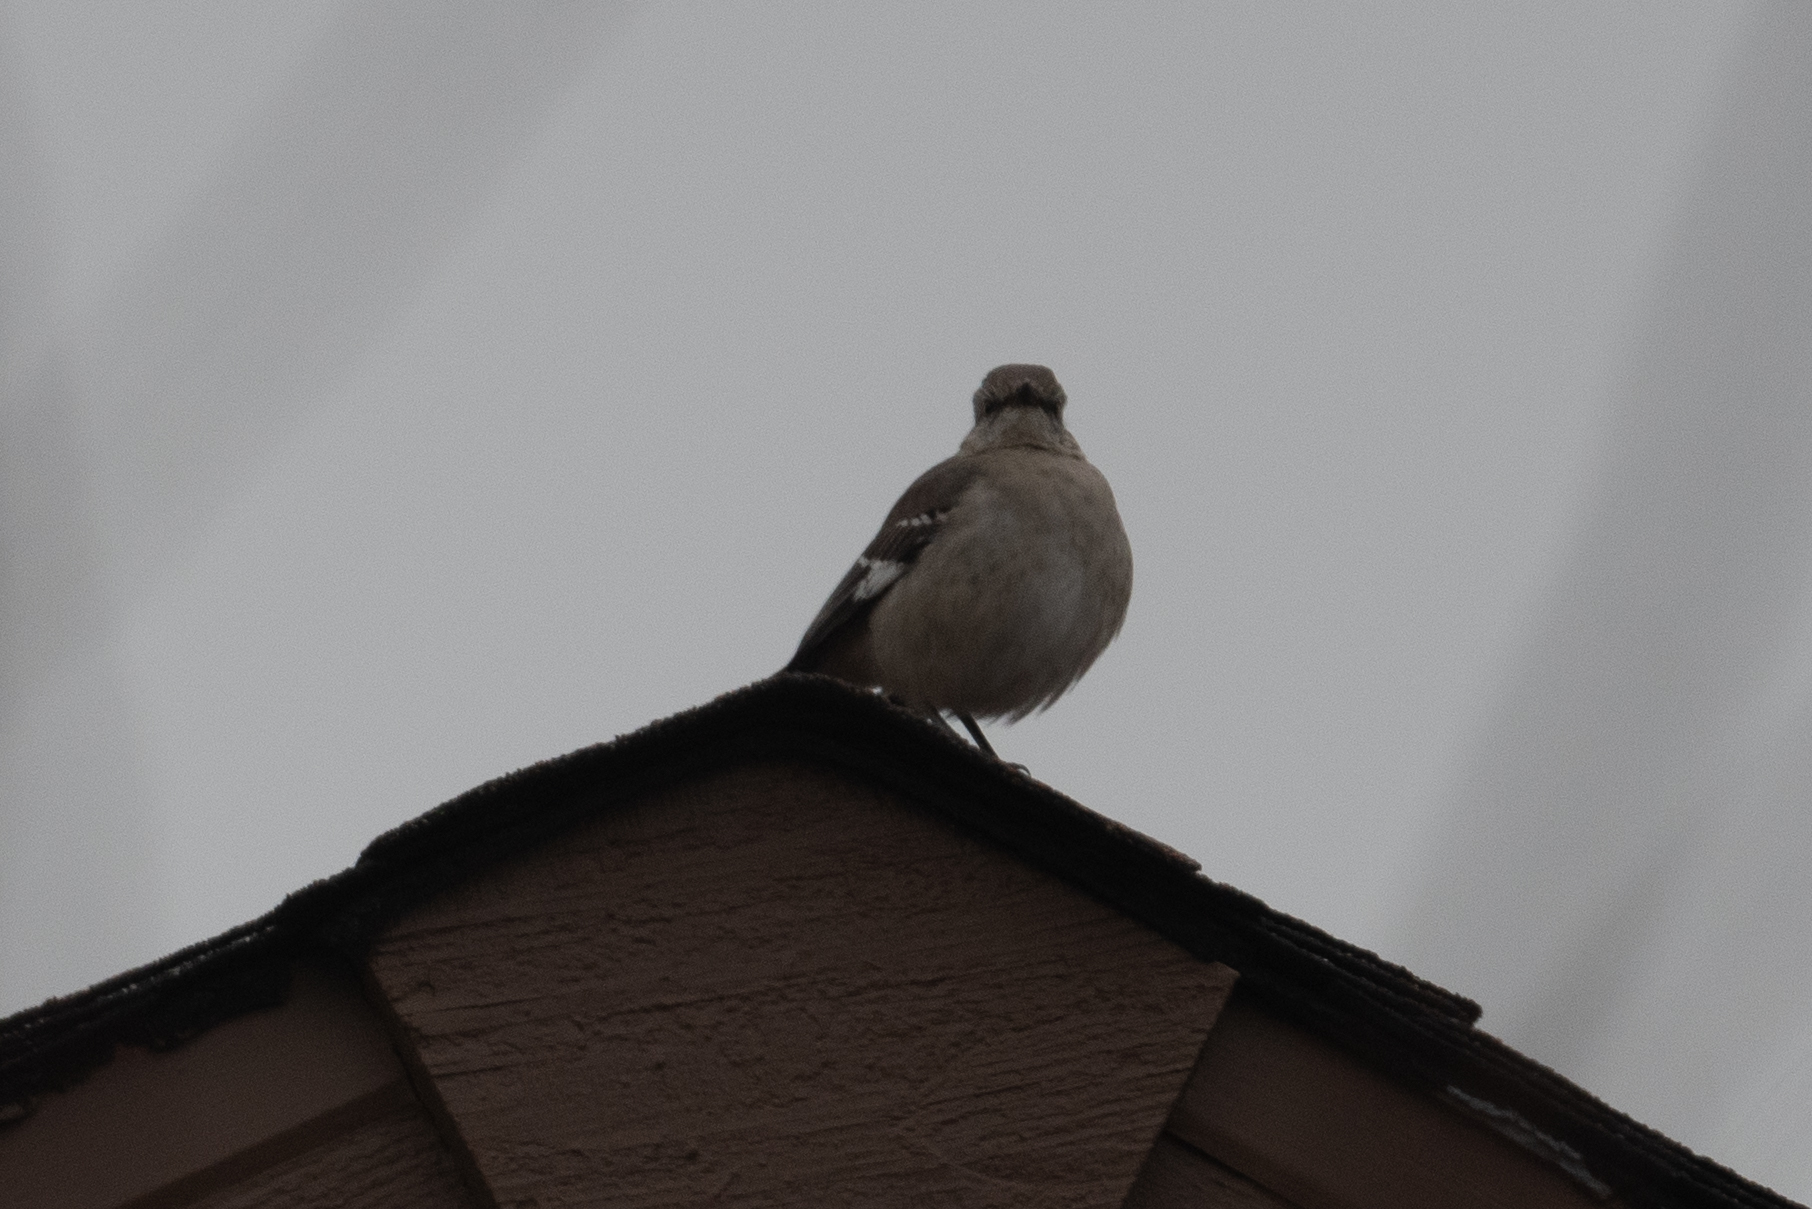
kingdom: Animalia
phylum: Chordata
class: Aves
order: Passeriformes
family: Mimidae
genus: Mimus
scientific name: Mimus polyglottos
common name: Northern mockingbird
